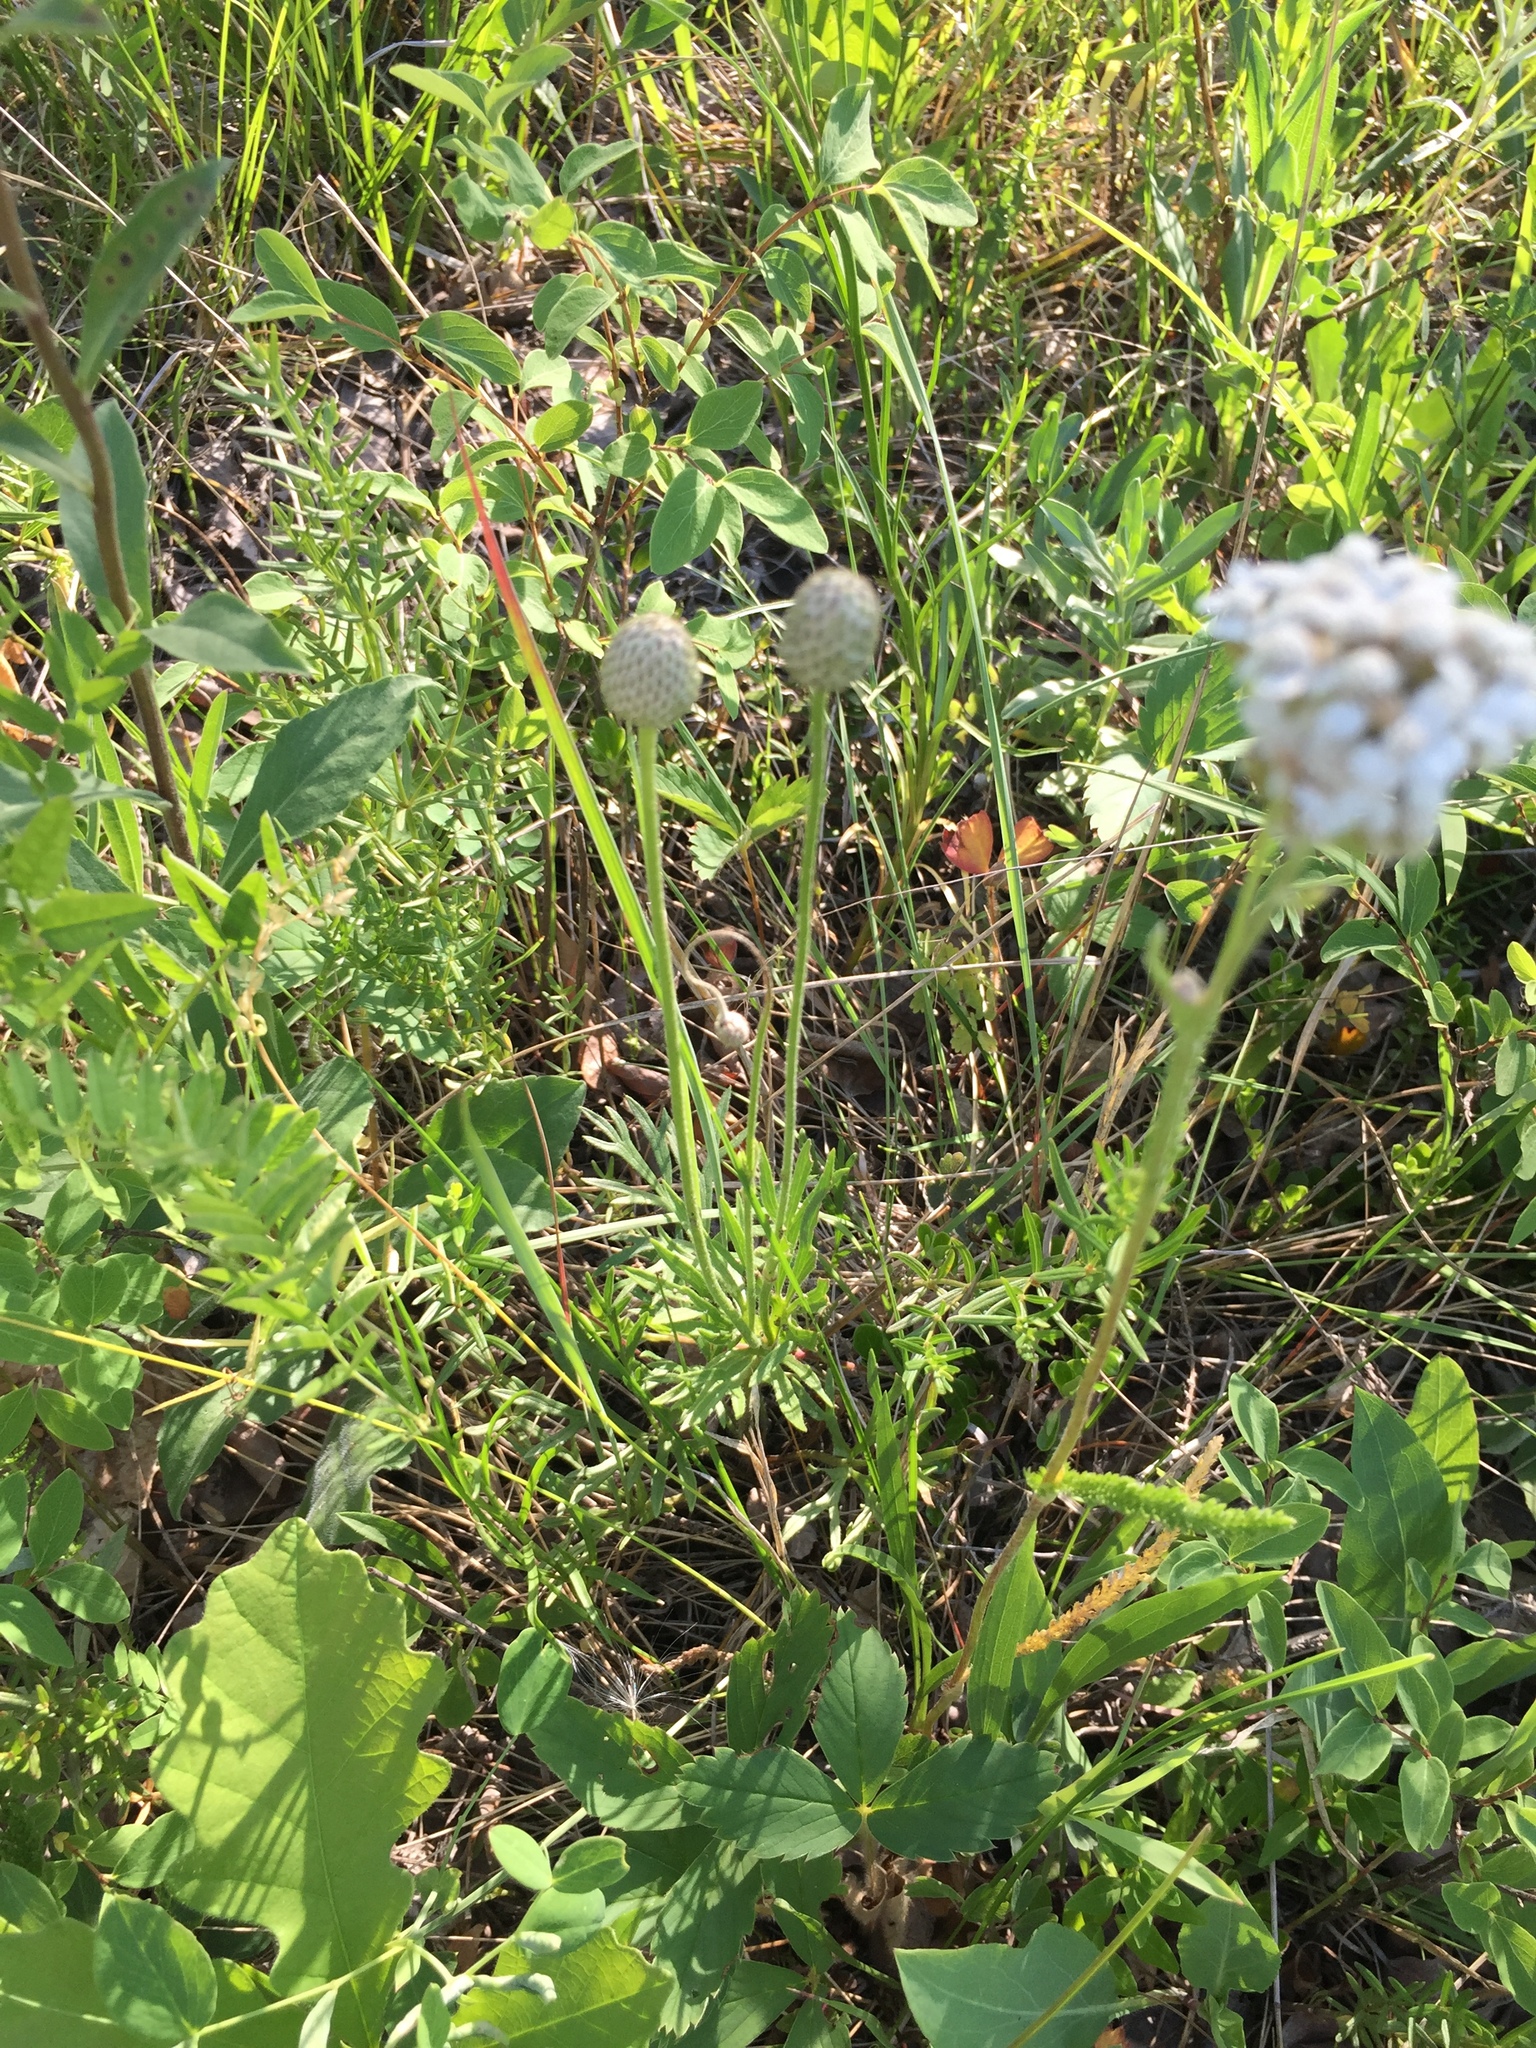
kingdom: Plantae
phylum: Tracheophyta
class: Magnoliopsida
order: Ranunculales
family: Ranunculaceae
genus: Anemone
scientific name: Anemone multifida
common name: Bird's-foot anemone
